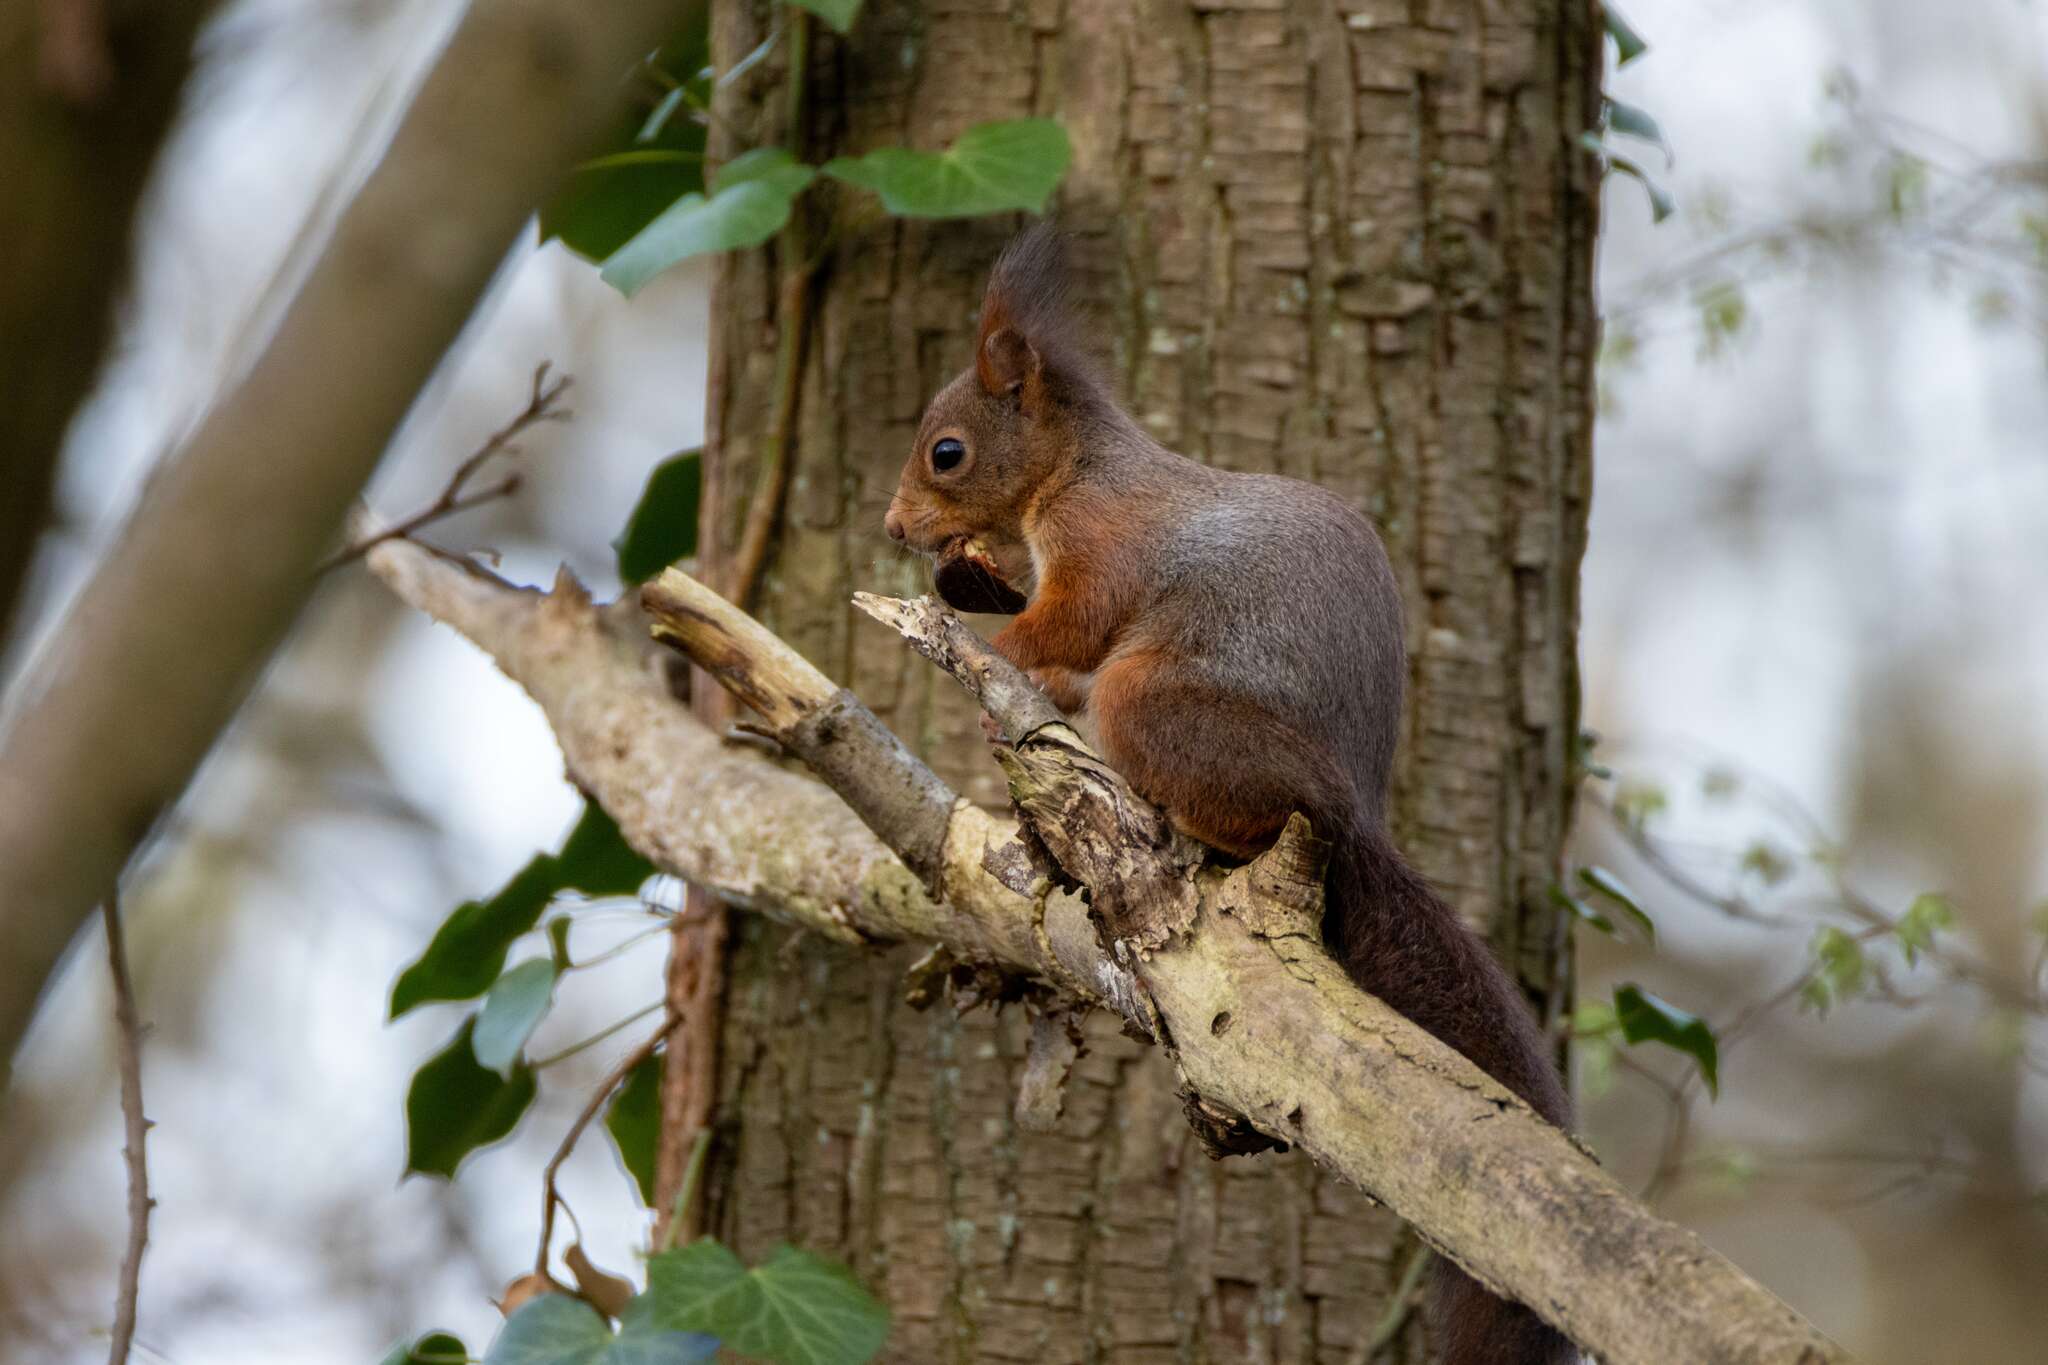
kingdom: Animalia
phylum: Chordata
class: Mammalia
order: Rodentia
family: Sciuridae
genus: Sciurus
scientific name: Sciurus vulgaris
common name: Eurasian red squirrel
